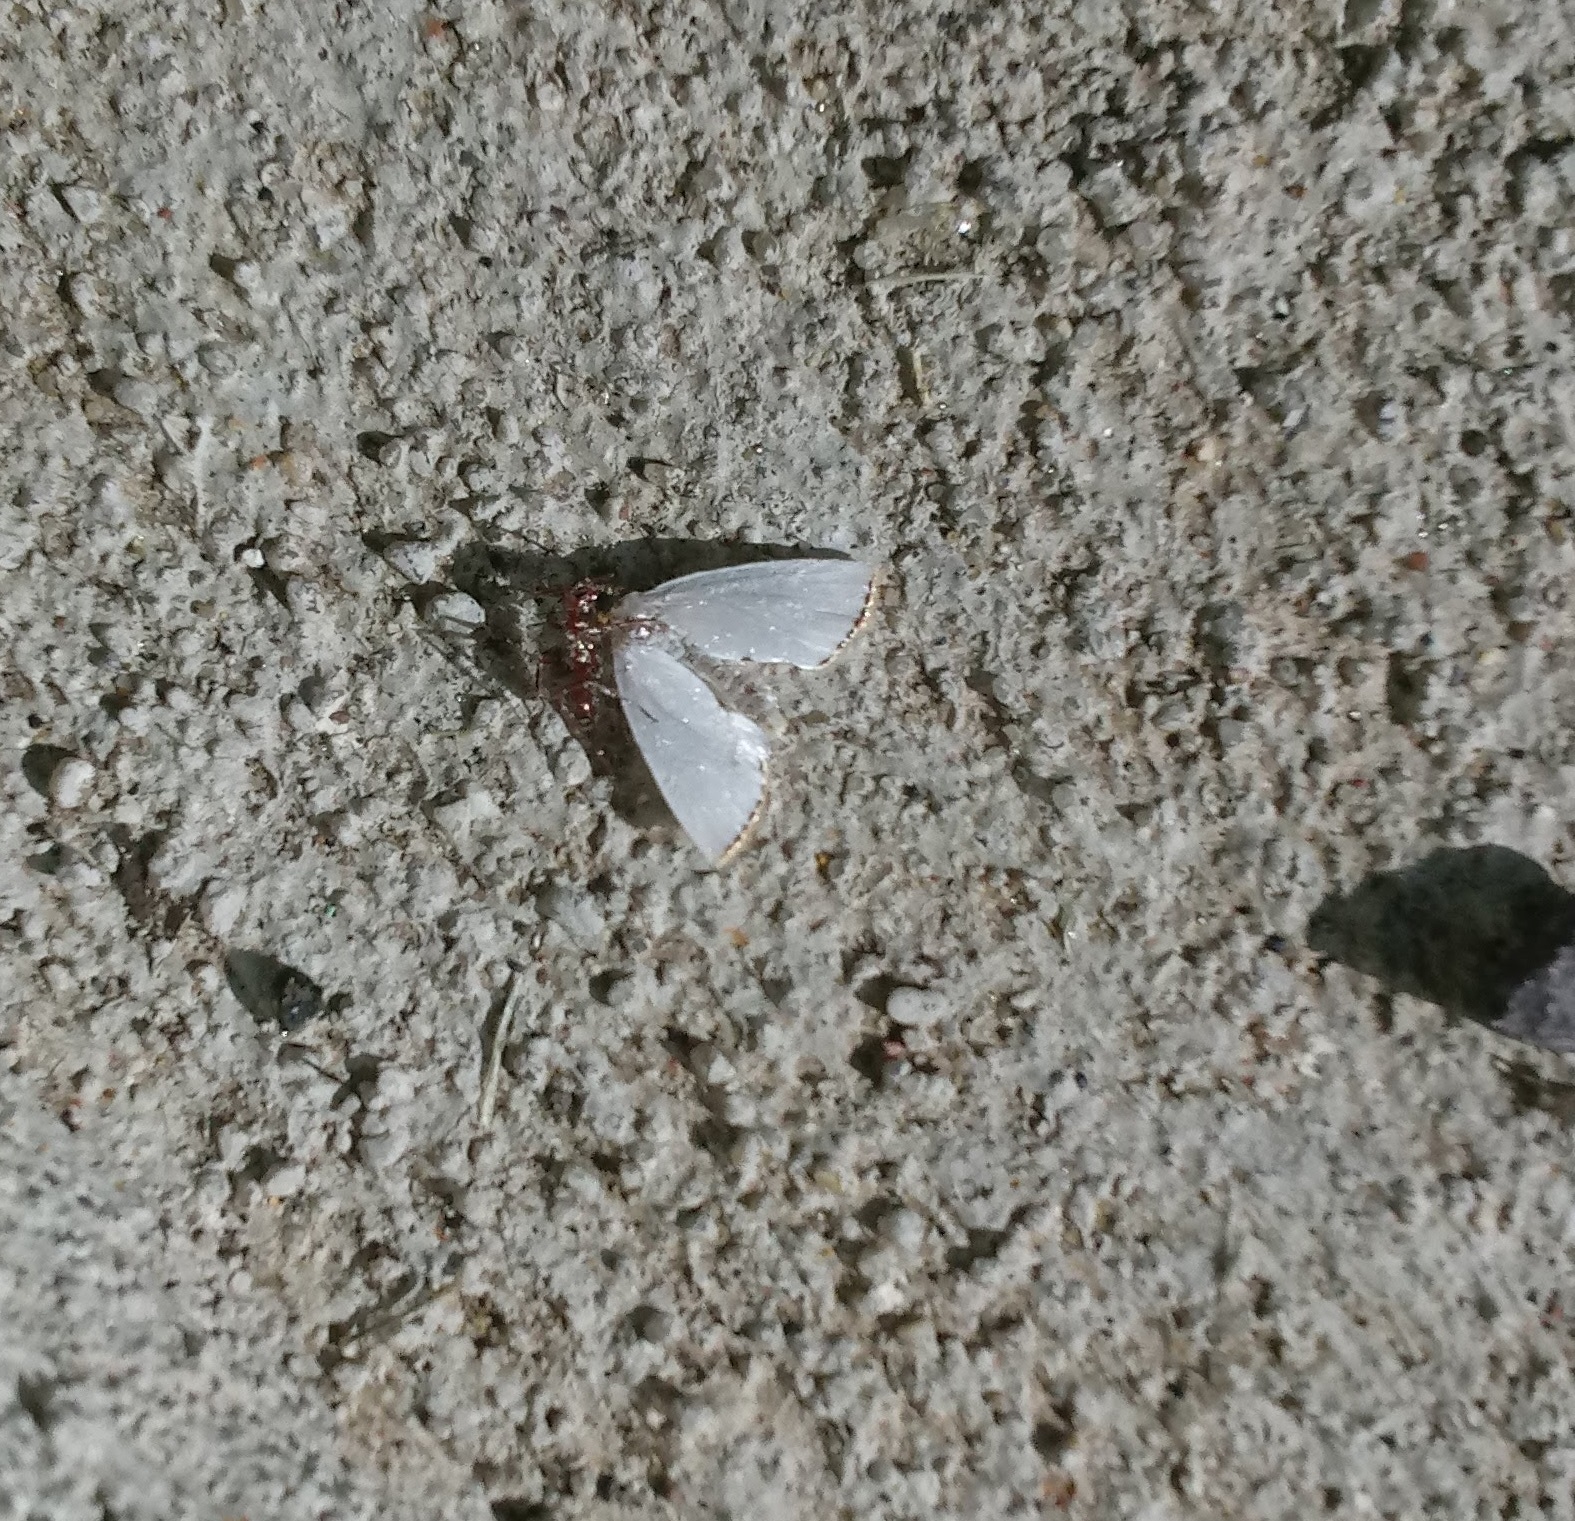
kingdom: Animalia
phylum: Arthropoda
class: Insecta
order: Lepidoptera
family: Crambidae
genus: Argyria
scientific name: Argyria nivalis
